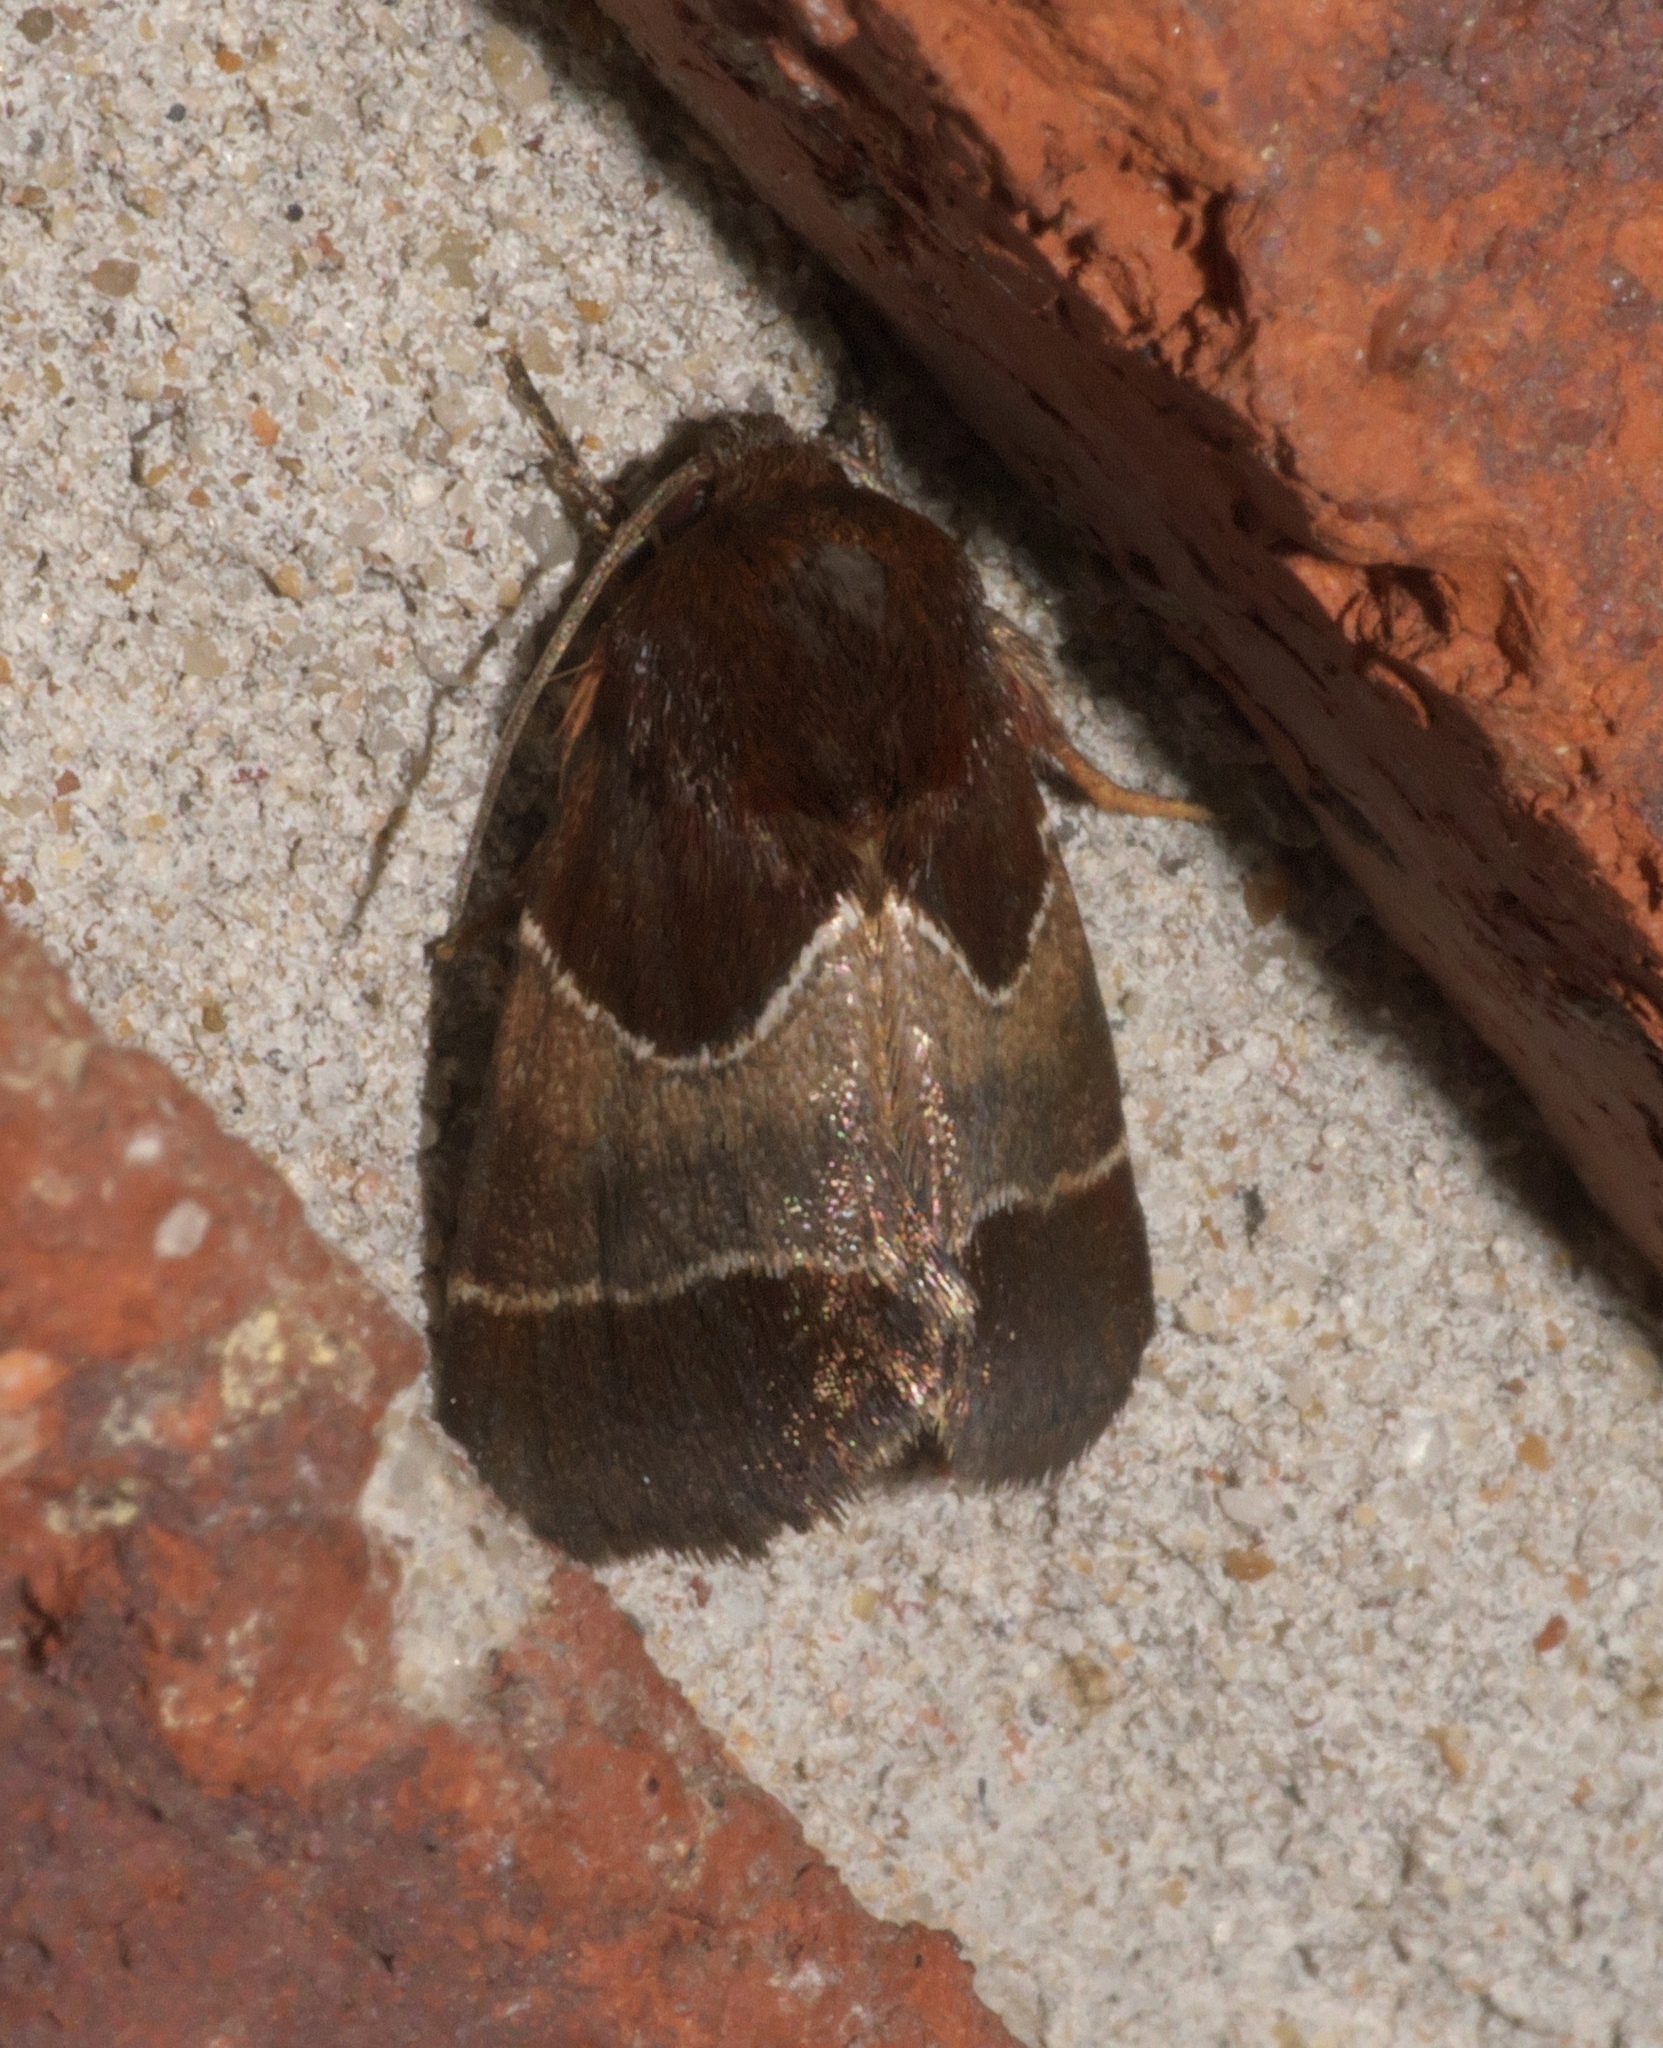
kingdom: Animalia
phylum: Arthropoda
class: Insecta
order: Lepidoptera
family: Noctuidae
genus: Schinia
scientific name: Schinia arcigera
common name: Arcigera flower moth
